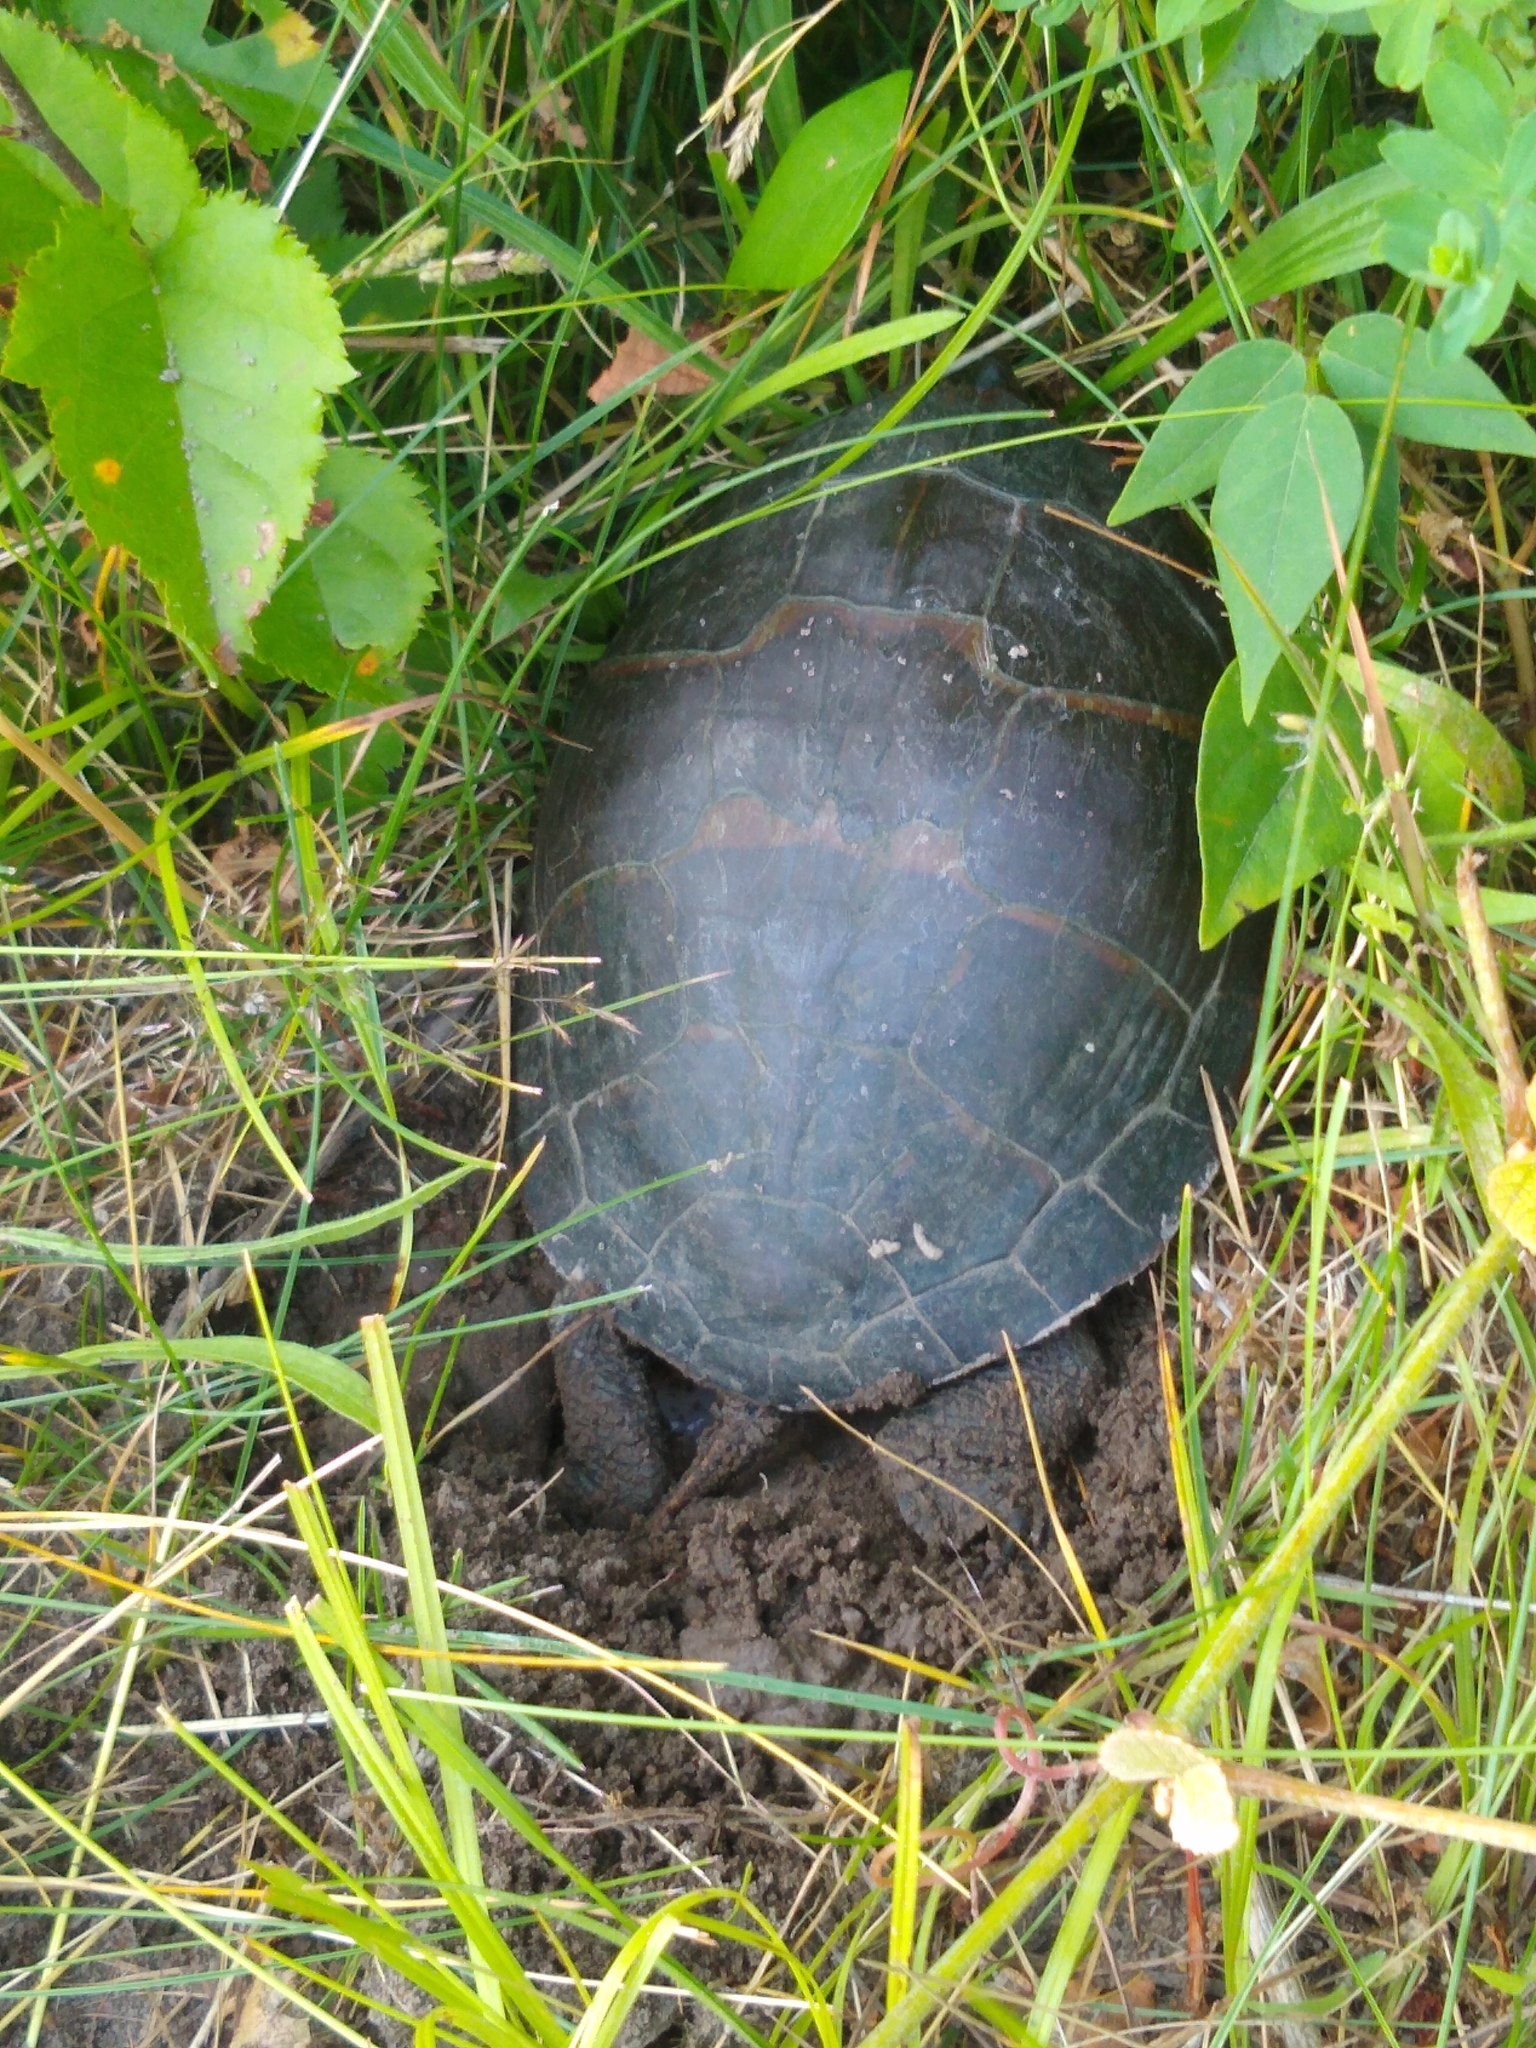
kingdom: Animalia
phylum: Chordata
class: Testudines
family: Emydidae
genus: Chrysemys
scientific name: Chrysemys picta
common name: Painted turtle
